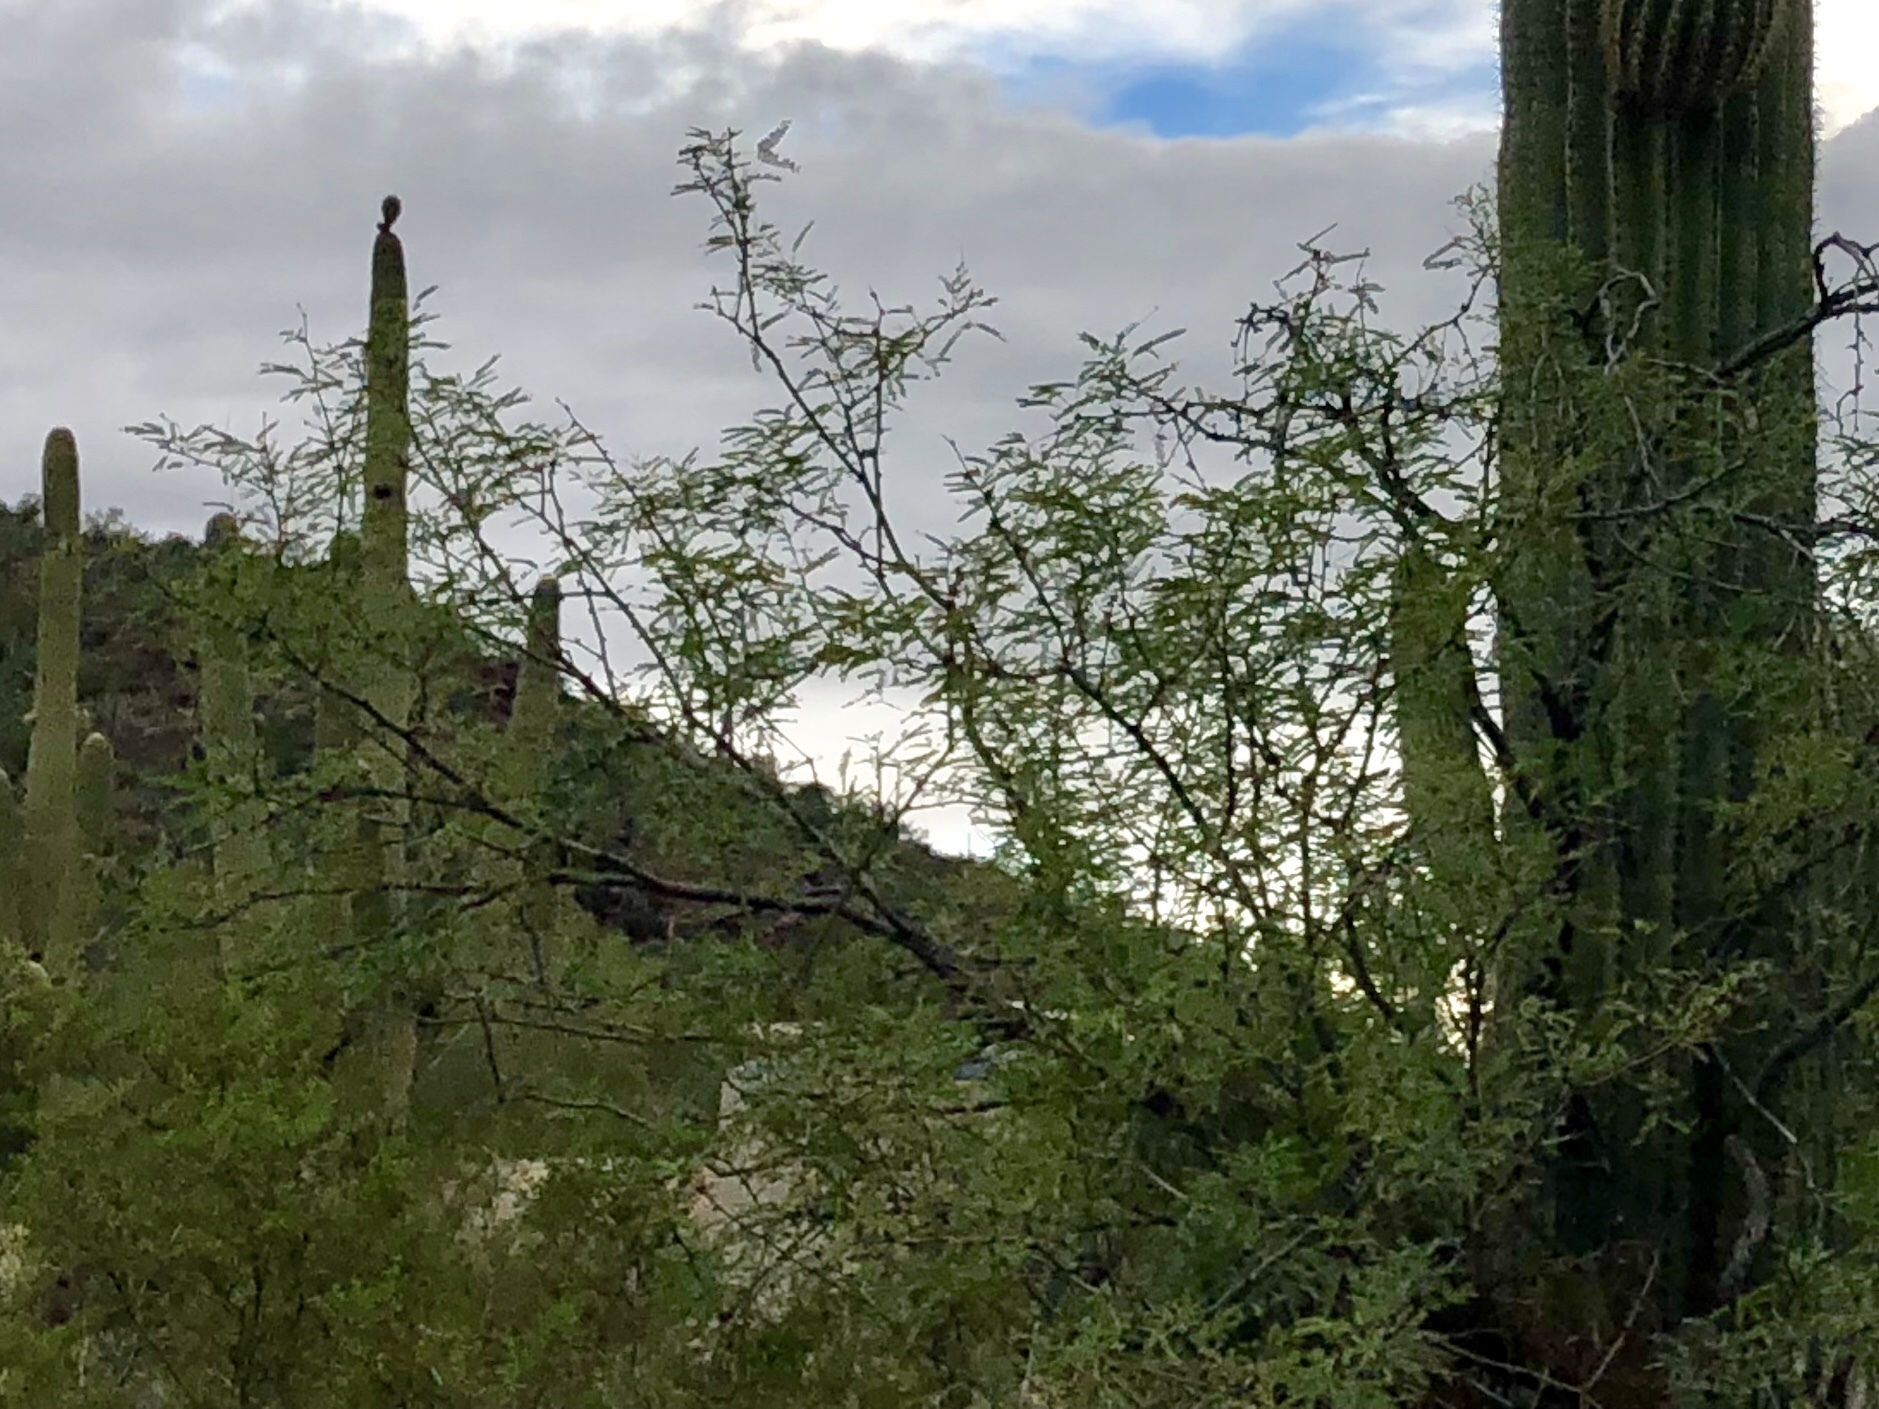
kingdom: Plantae
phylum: Tracheophyta
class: Magnoliopsida
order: Fabales
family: Fabaceae
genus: Prosopis
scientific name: Prosopis velutina
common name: Velvet mesquite
